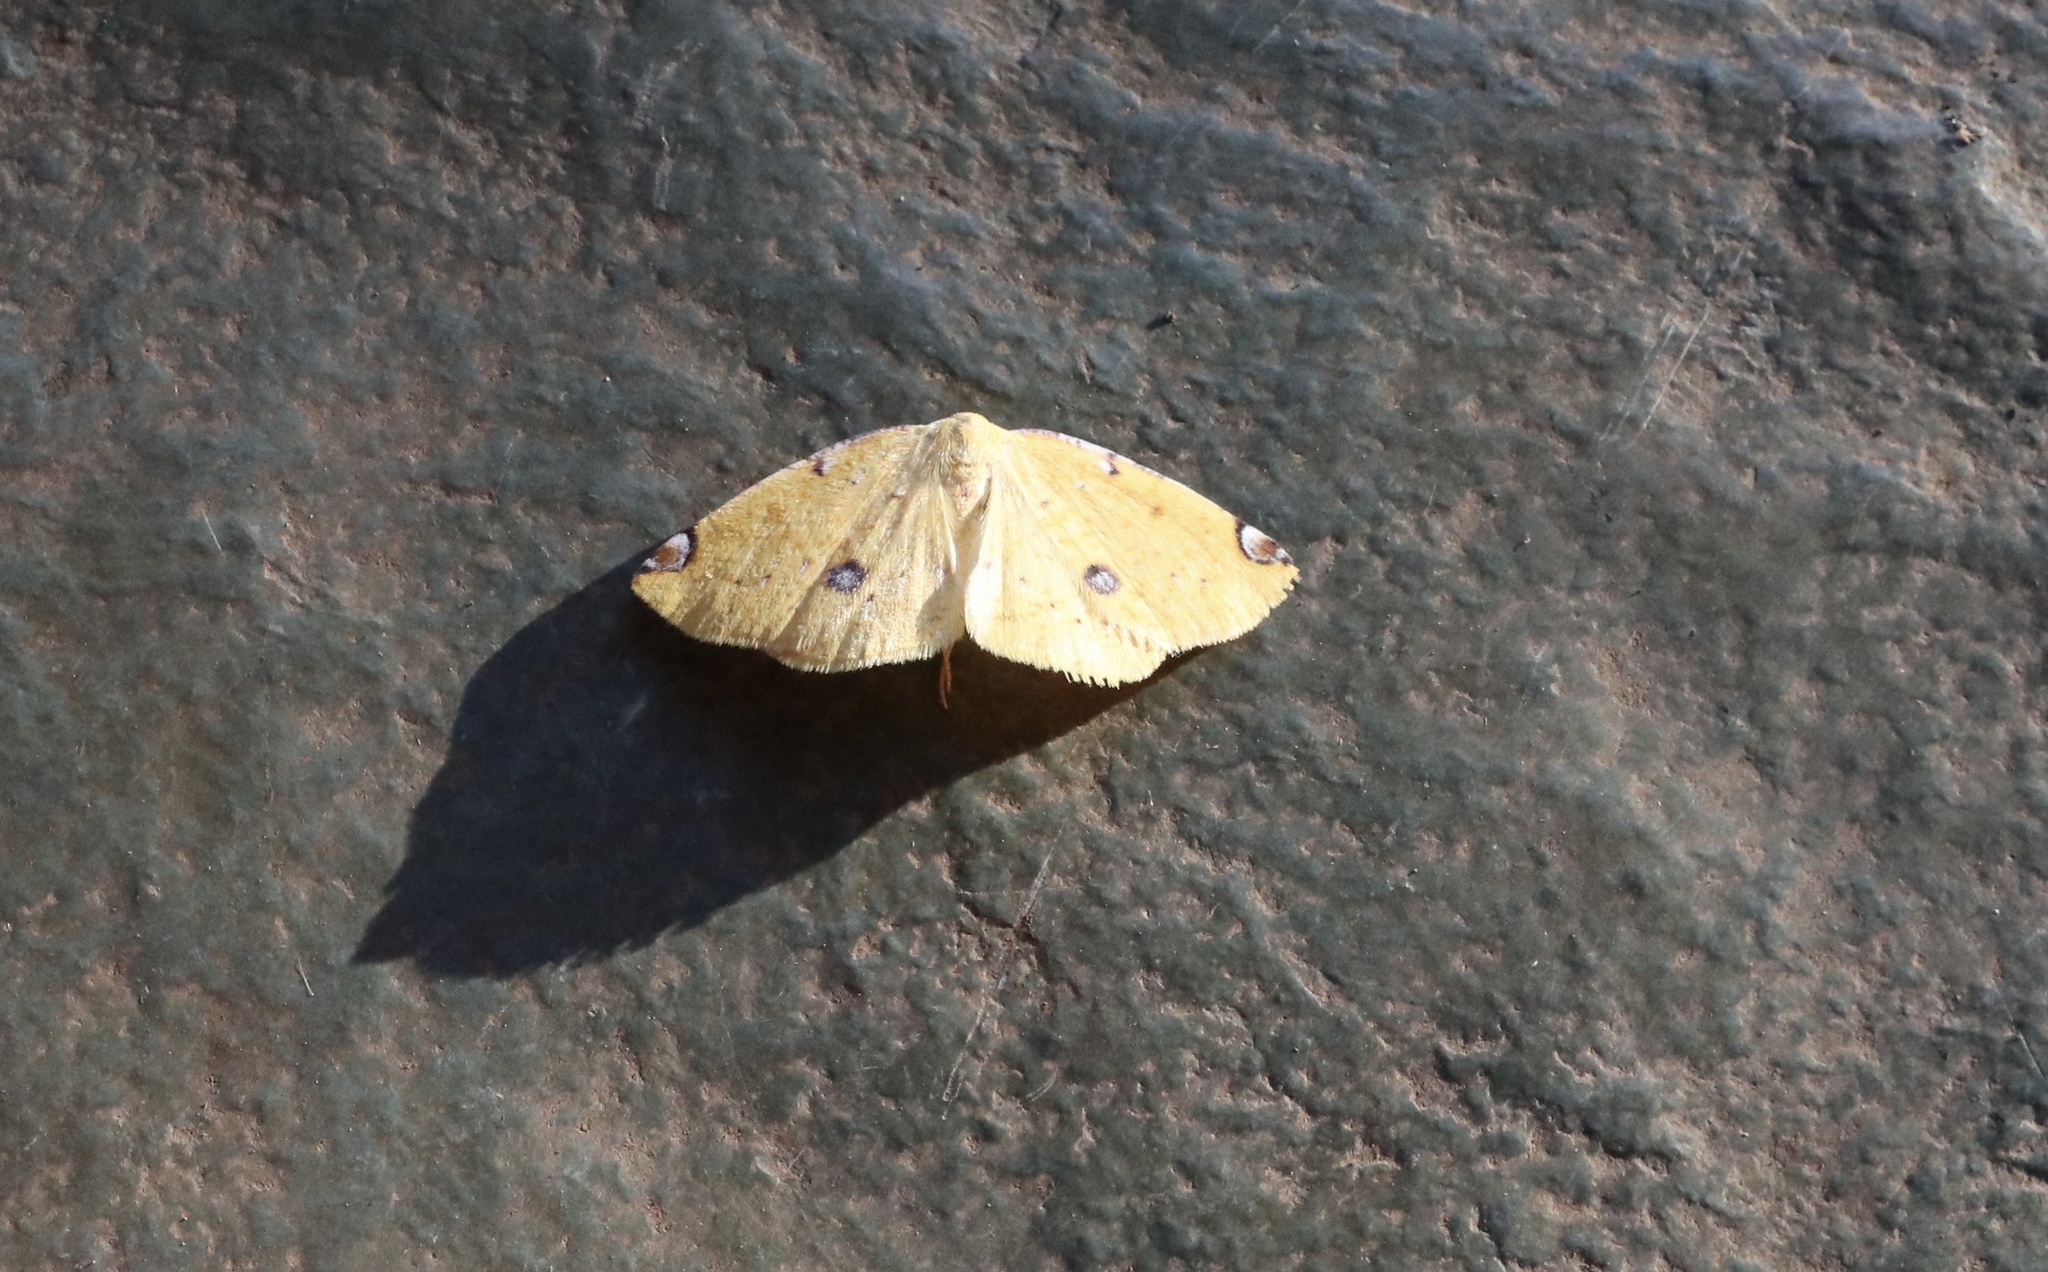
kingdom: Animalia
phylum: Arthropoda
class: Insecta
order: Lepidoptera
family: Geometridae
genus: Perusia
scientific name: Perusia aurantiacaria
